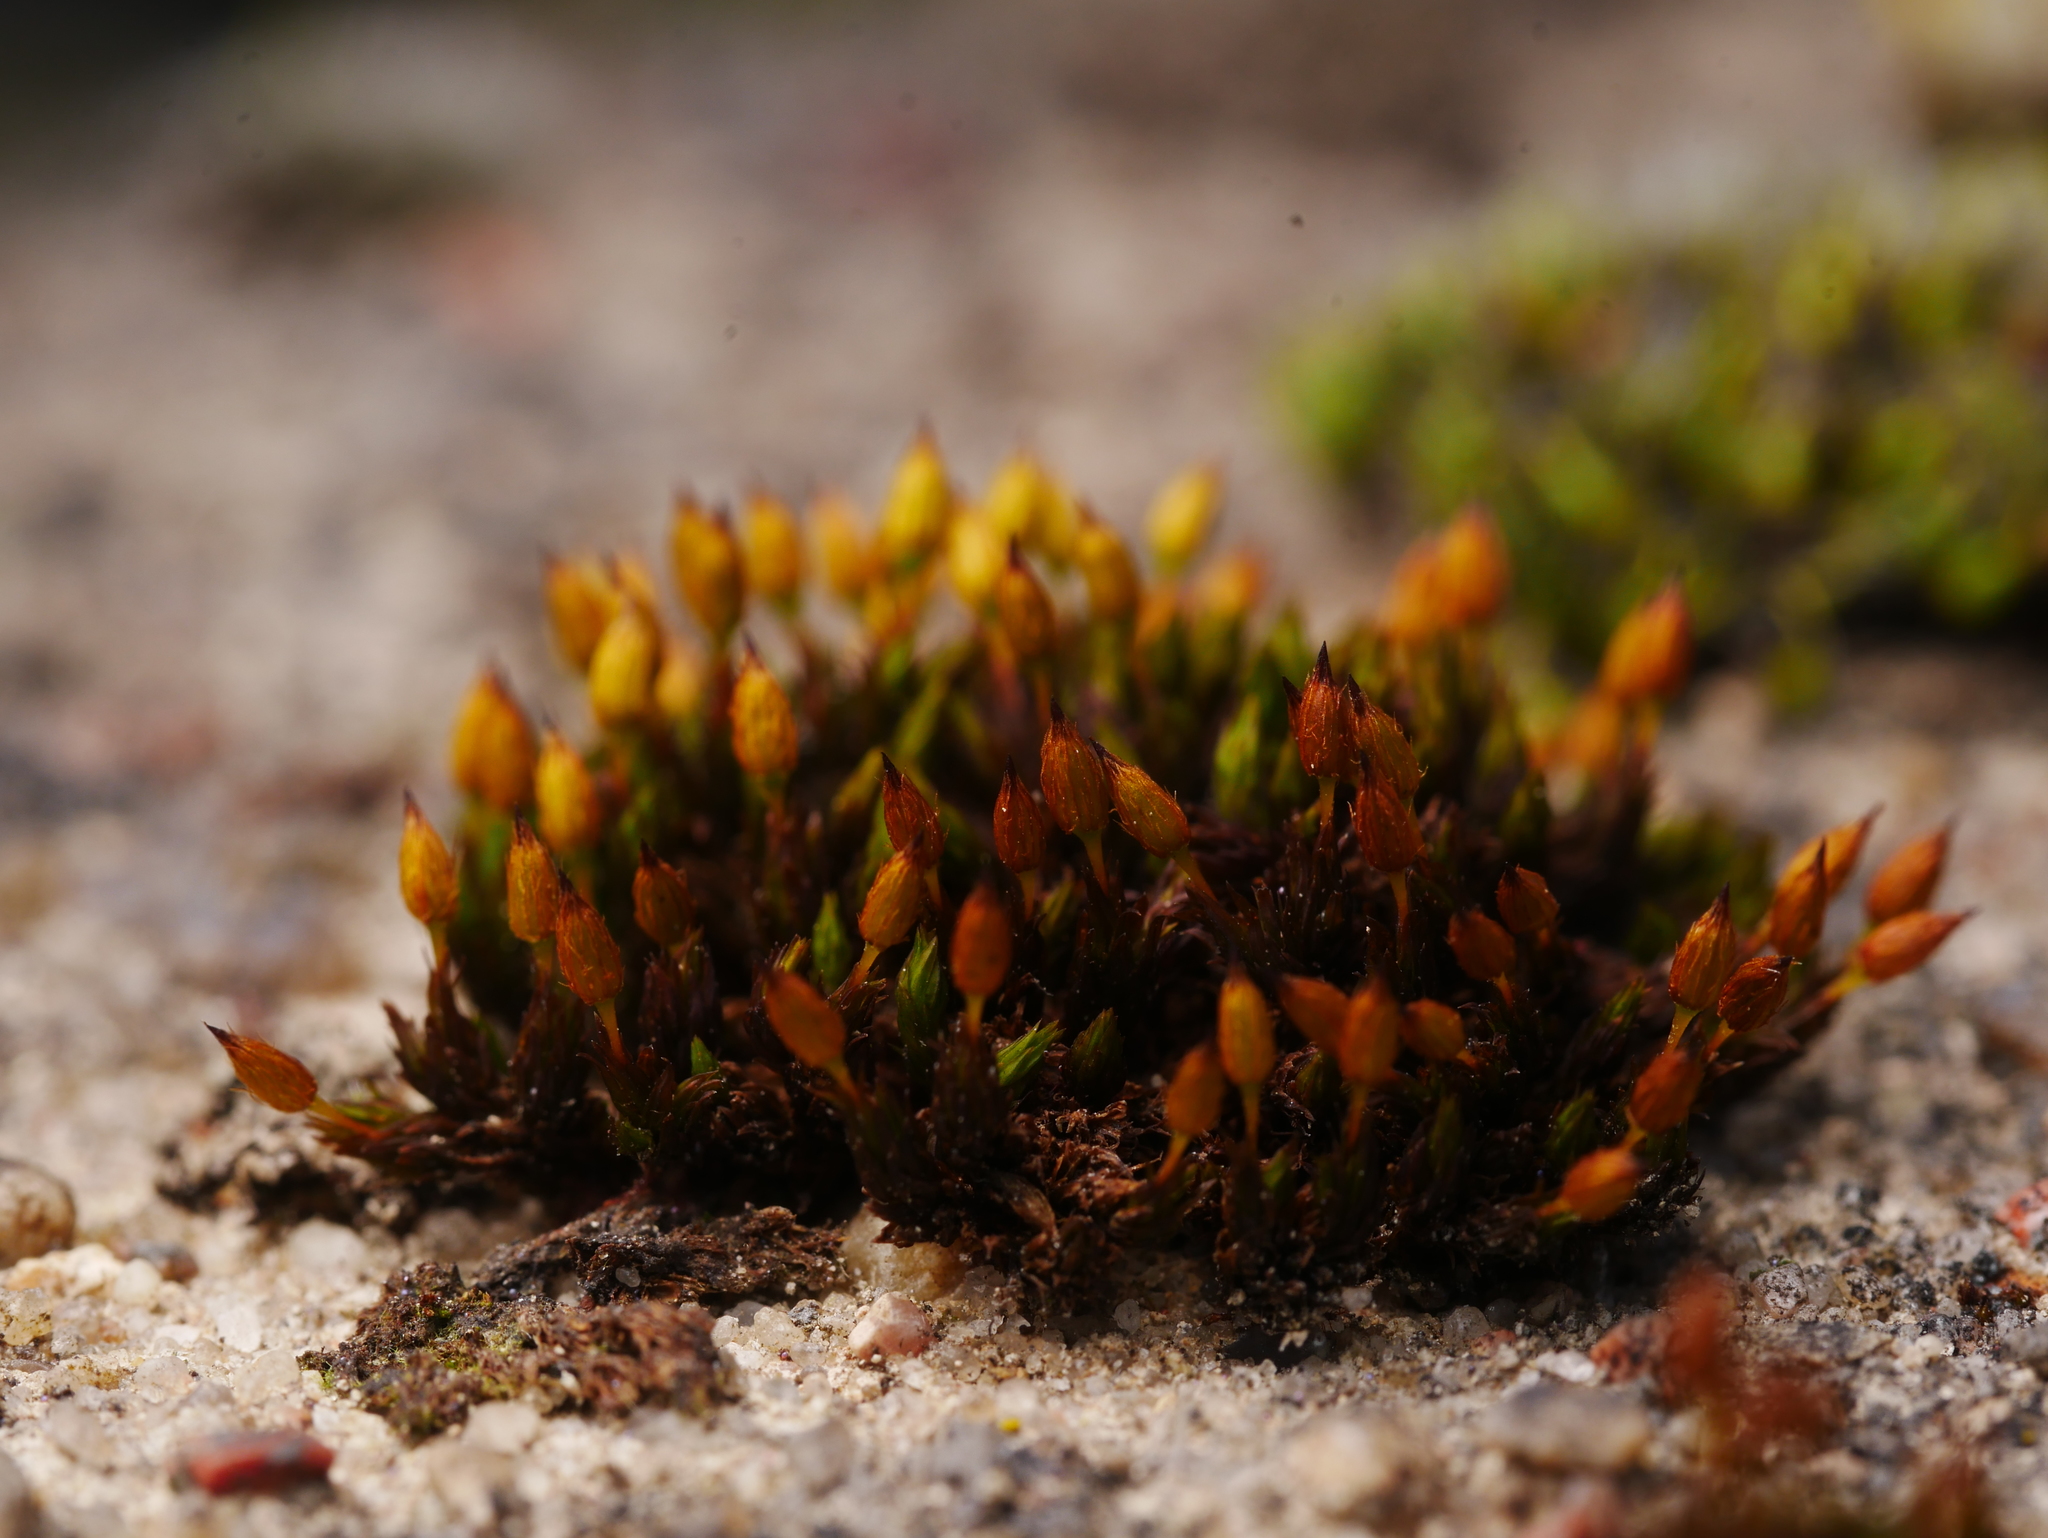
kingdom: Plantae
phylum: Bryophyta
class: Bryopsida
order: Orthotrichales
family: Orthotrichaceae
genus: Orthotrichum
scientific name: Orthotrichum anomalum
